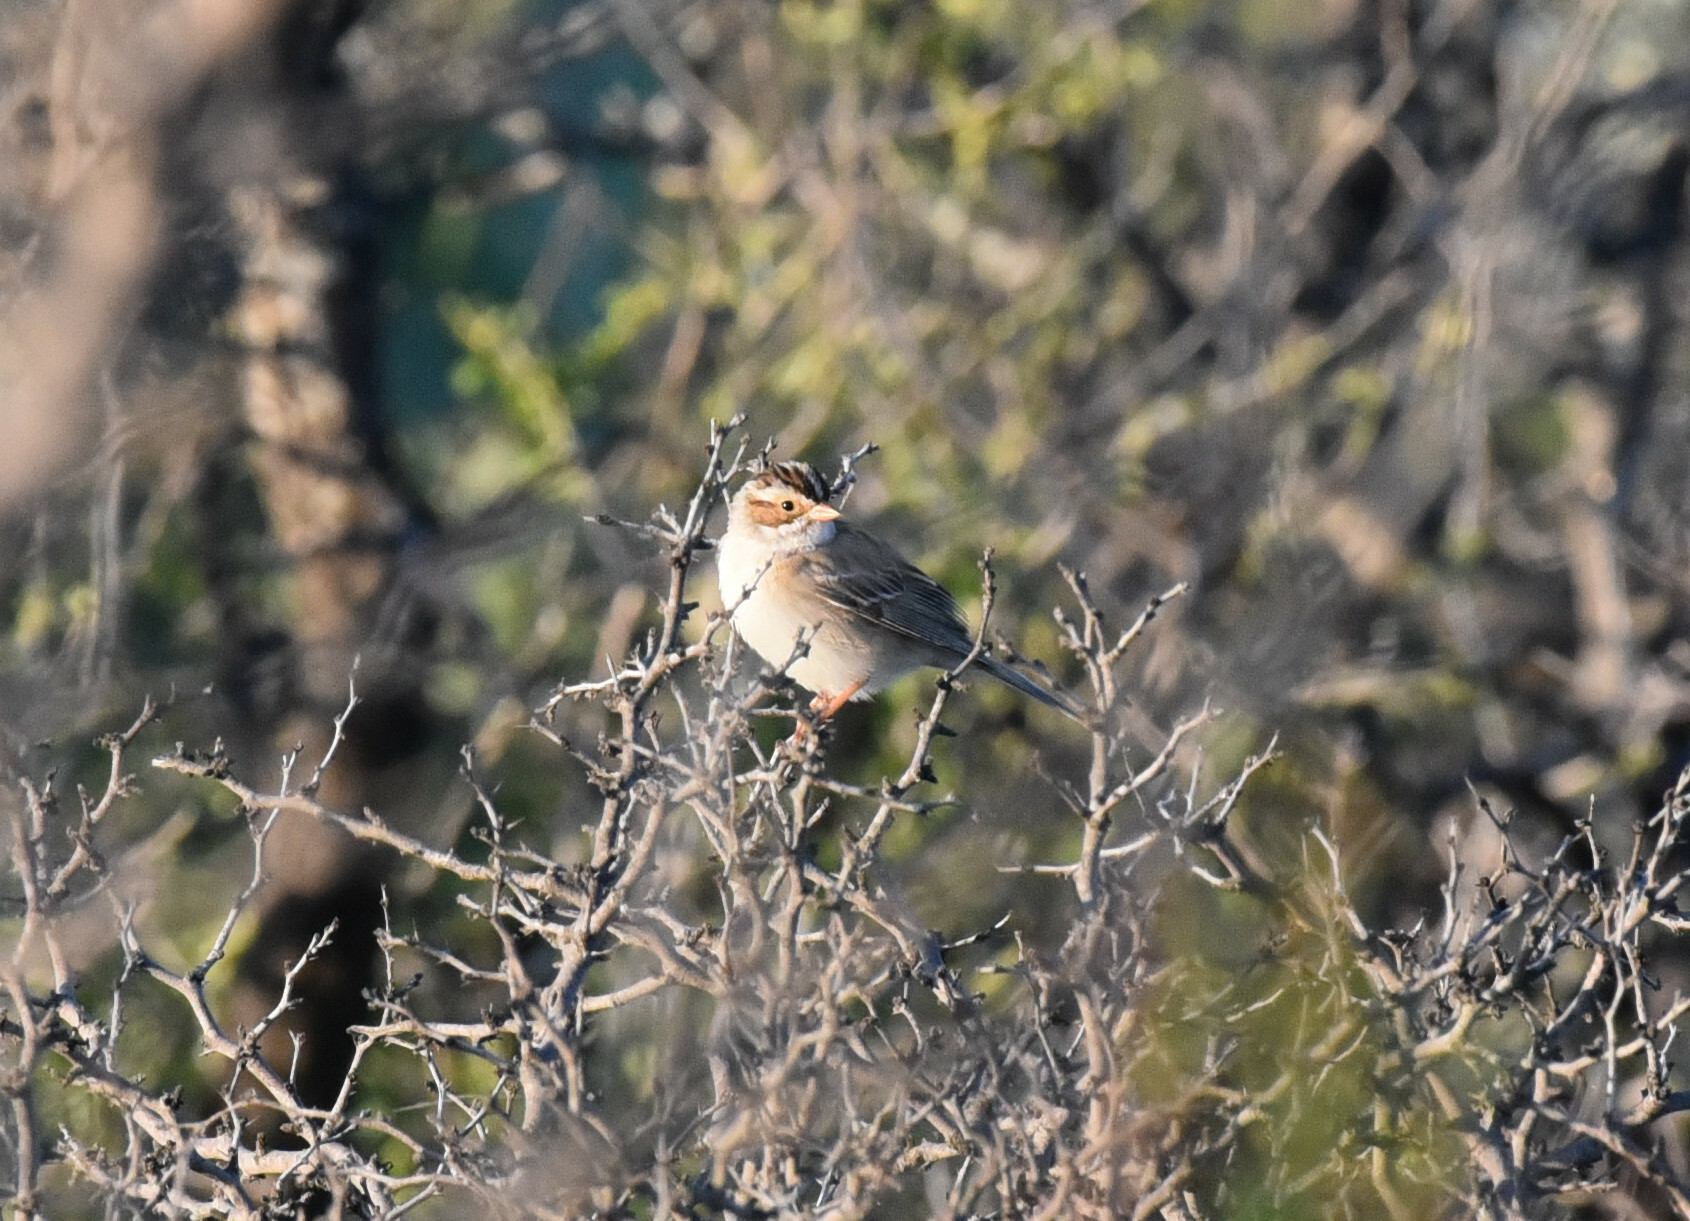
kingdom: Animalia
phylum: Chordata
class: Aves
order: Passeriformes
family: Passerellidae
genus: Spizella
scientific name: Spizella pallida
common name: Clay-colored sparrow
